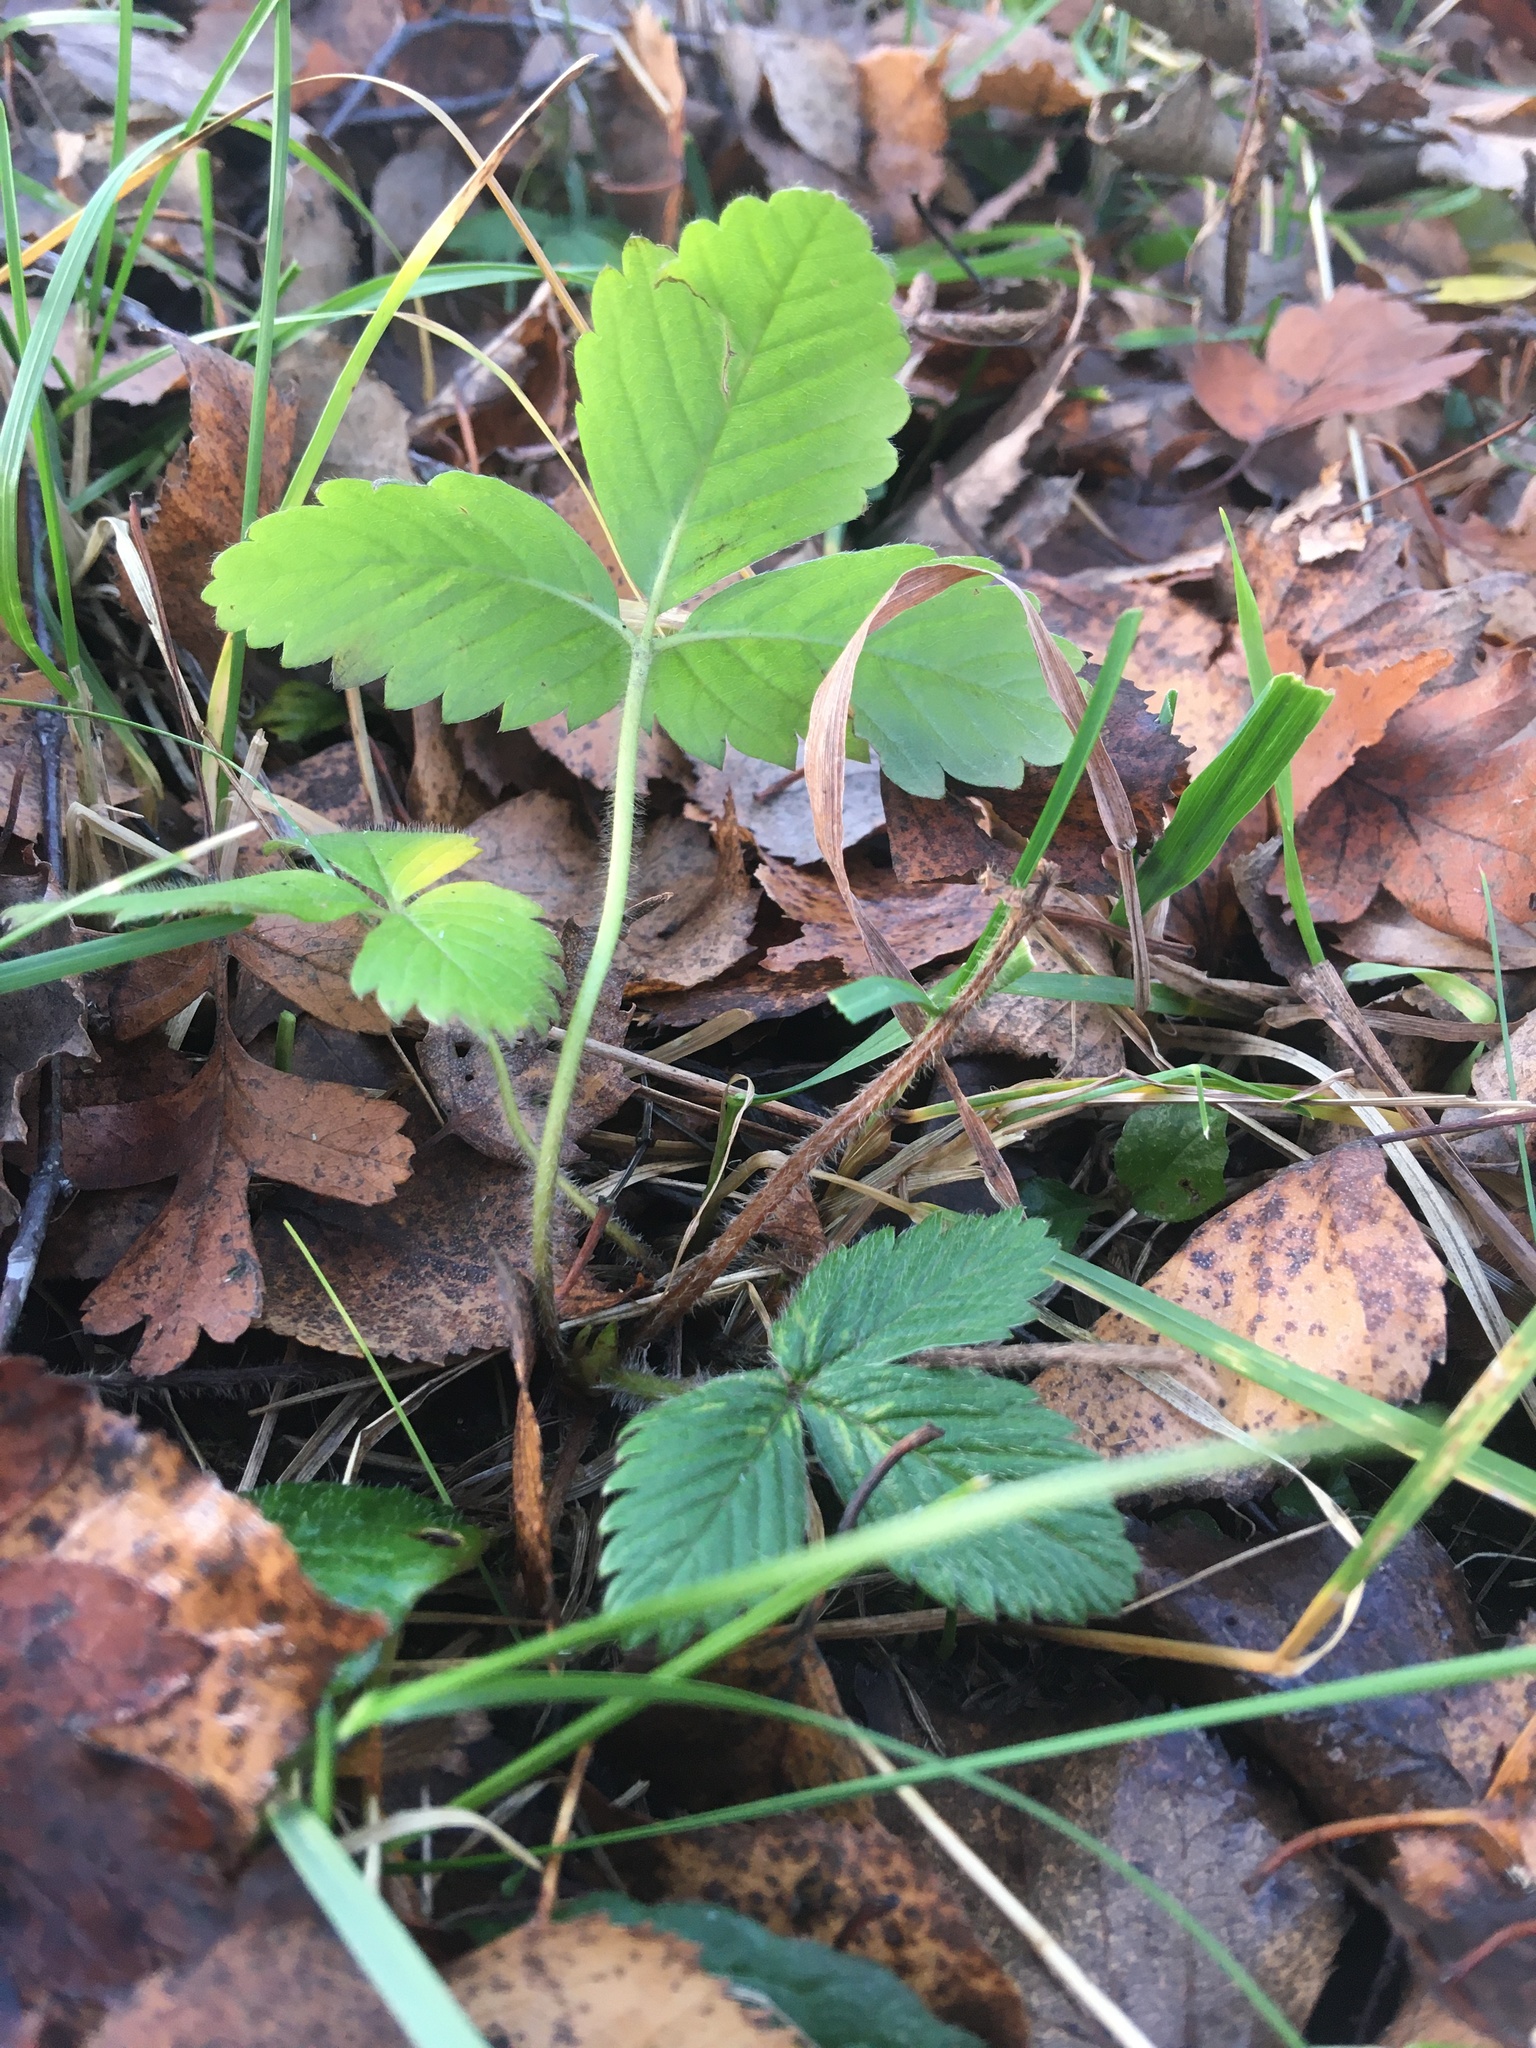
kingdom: Plantae
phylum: Tracheophyta
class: Magnoliopsida
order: Rosales
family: Rosaceae
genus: Fragaria
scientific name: Fragaria vesca
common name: Wild strawberry
